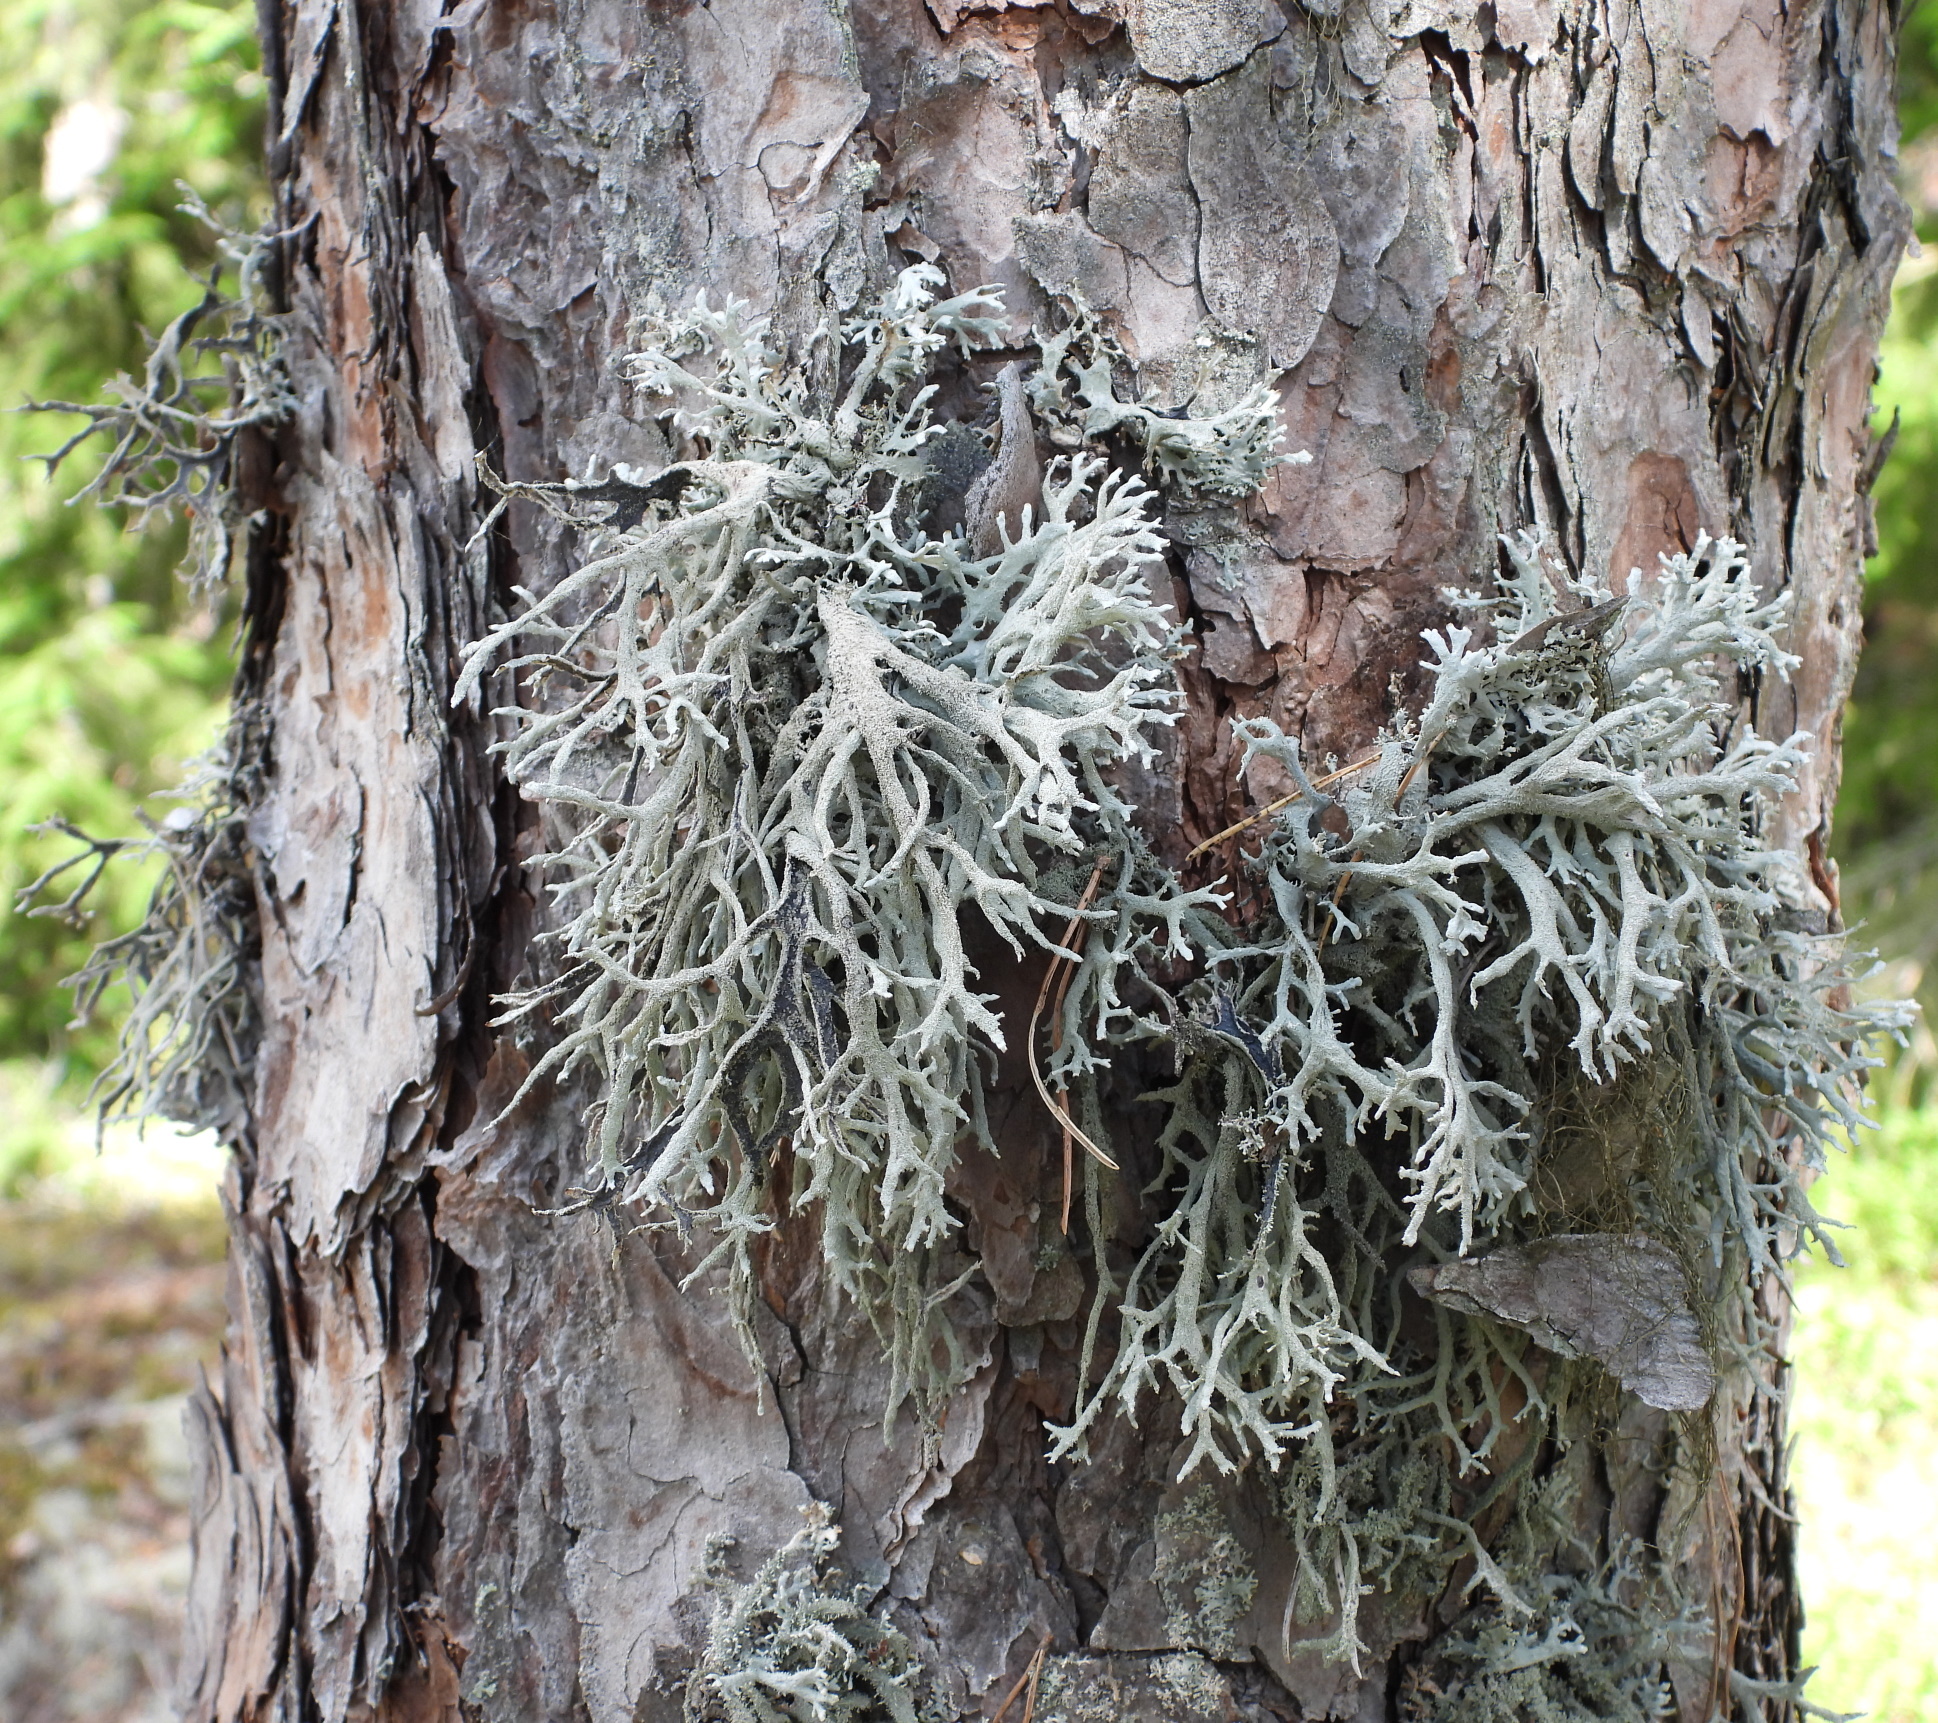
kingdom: Fungi
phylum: Ascomycota
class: Lecanoromycetes
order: Lecanorales
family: Parmeliaceae
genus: Pseudevernia
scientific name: Pseudevernia furfuracea
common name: Tree moss
